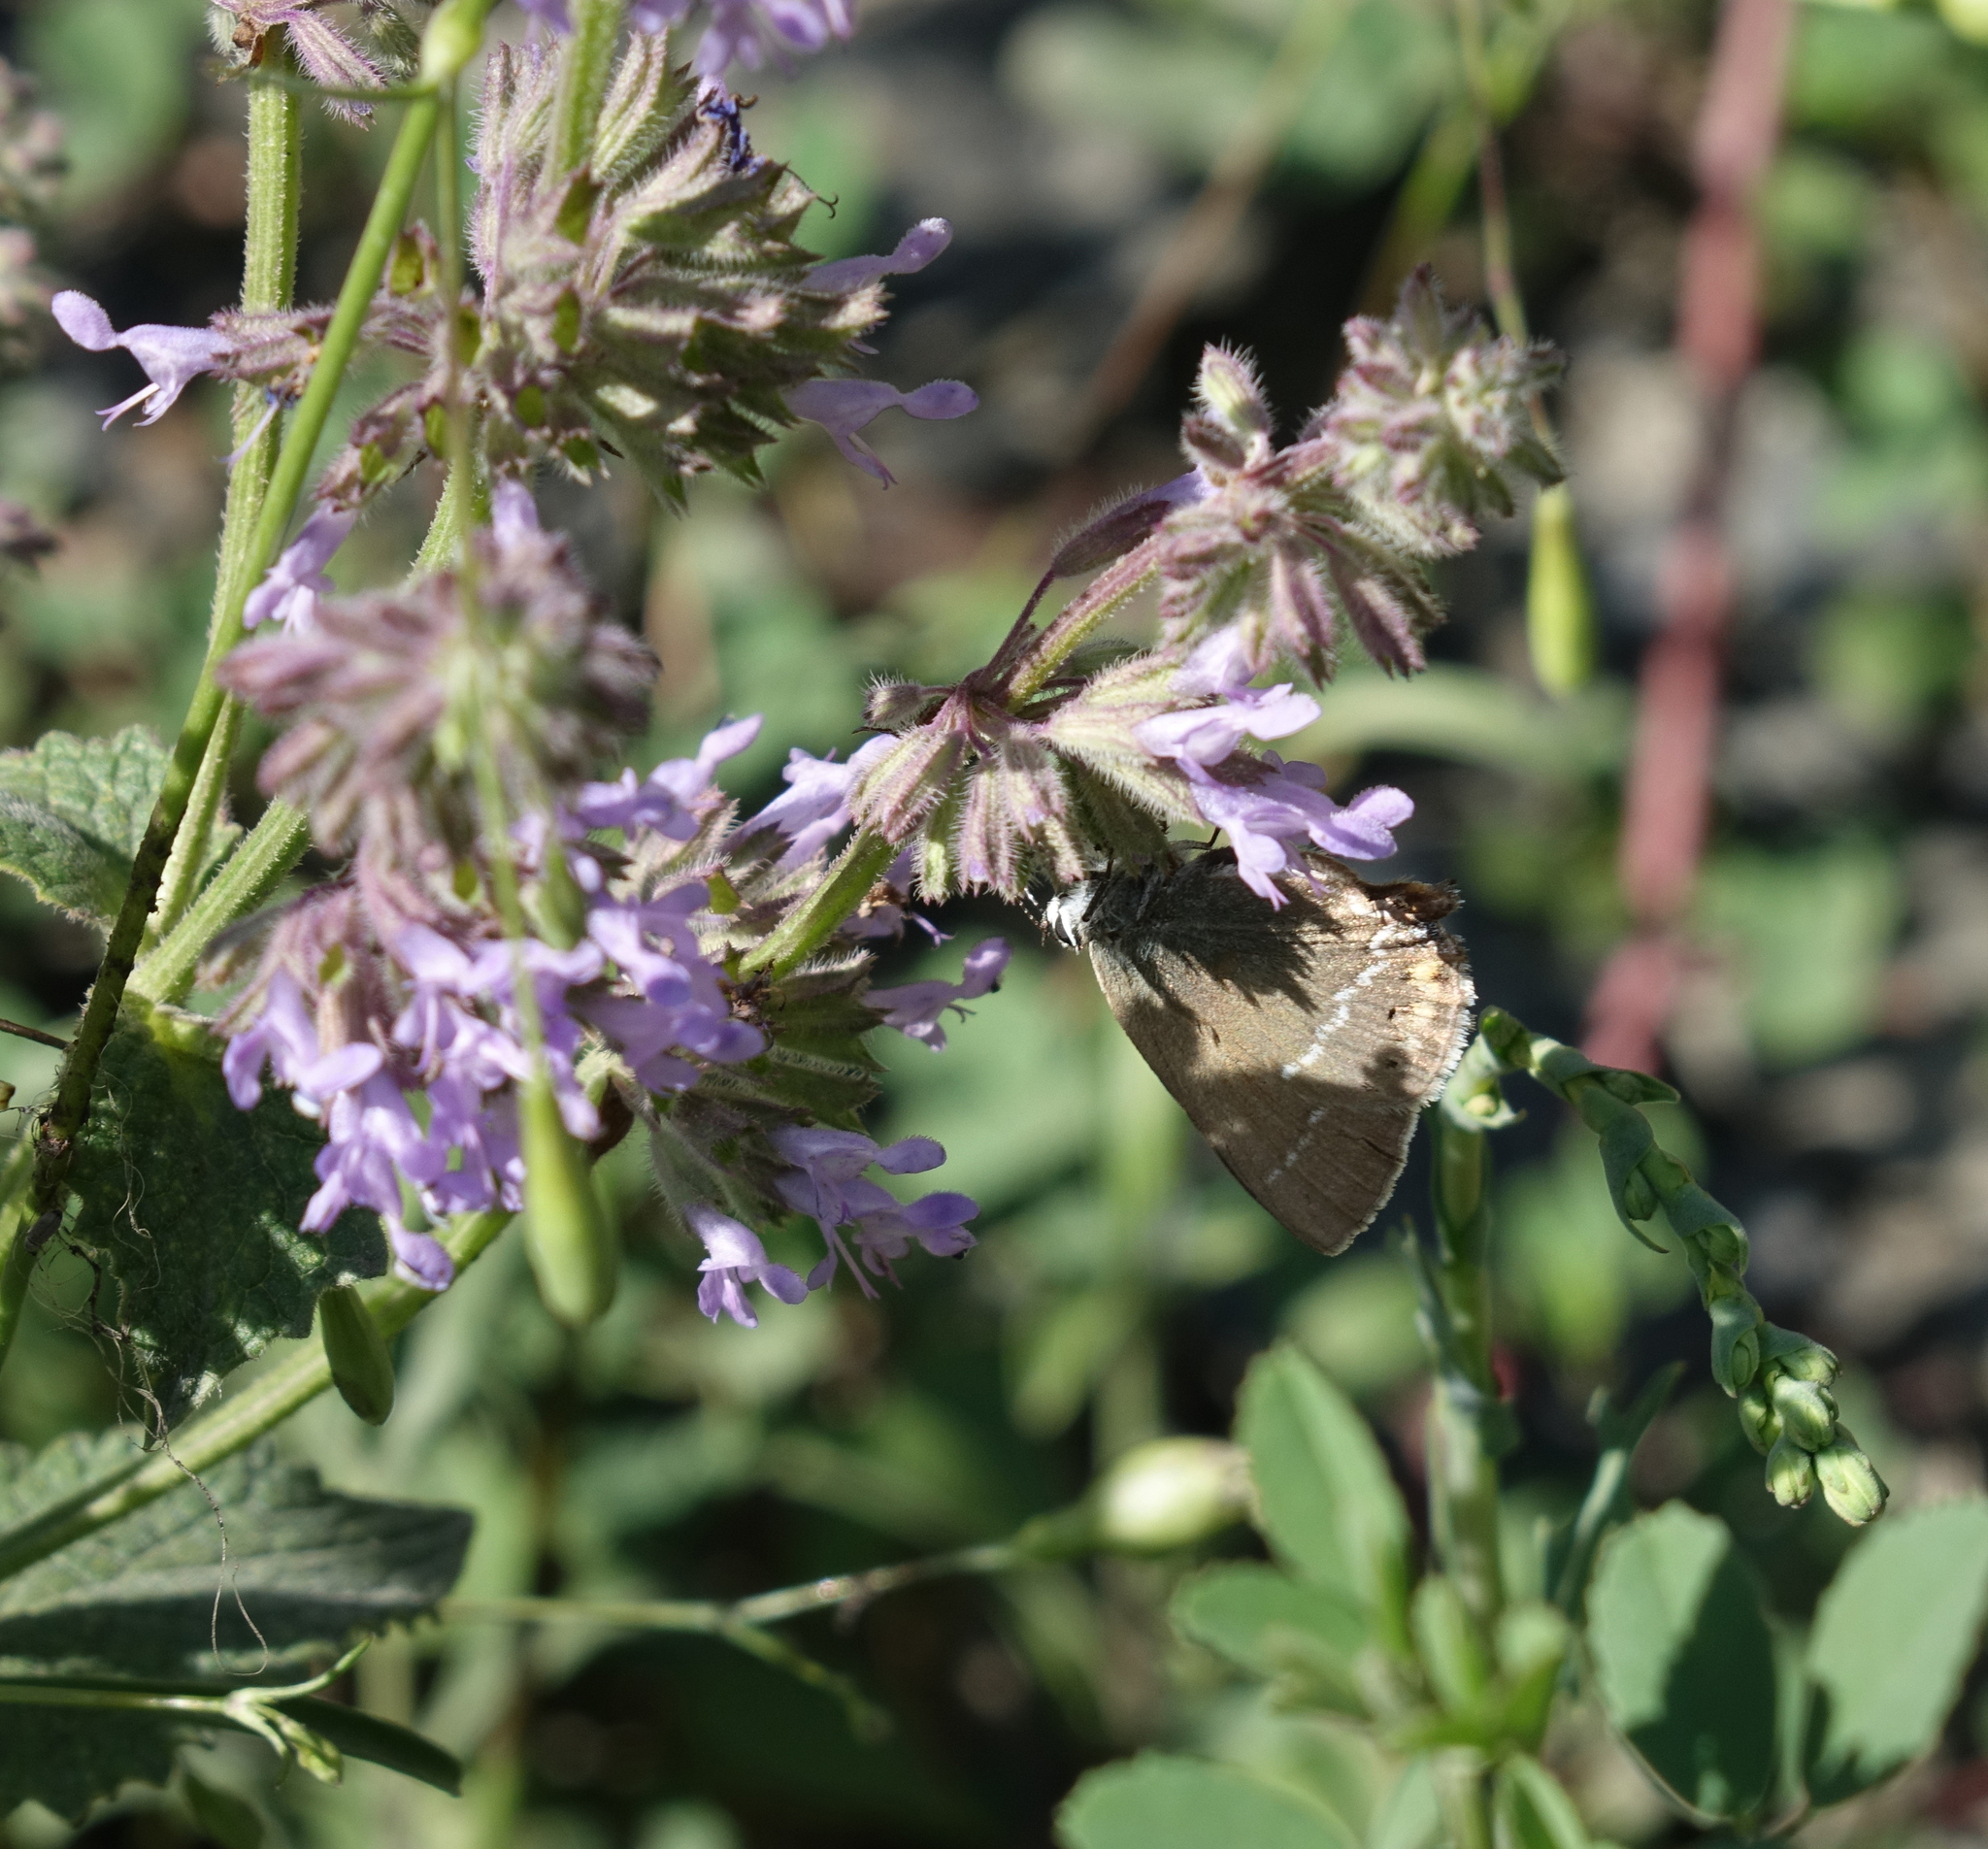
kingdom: Plantae
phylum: Tracheophyta
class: Magnoliopsida
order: Lamiales
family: Lamiaceae
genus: Salvia
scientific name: Salvia verticillata
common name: Whorled clary
